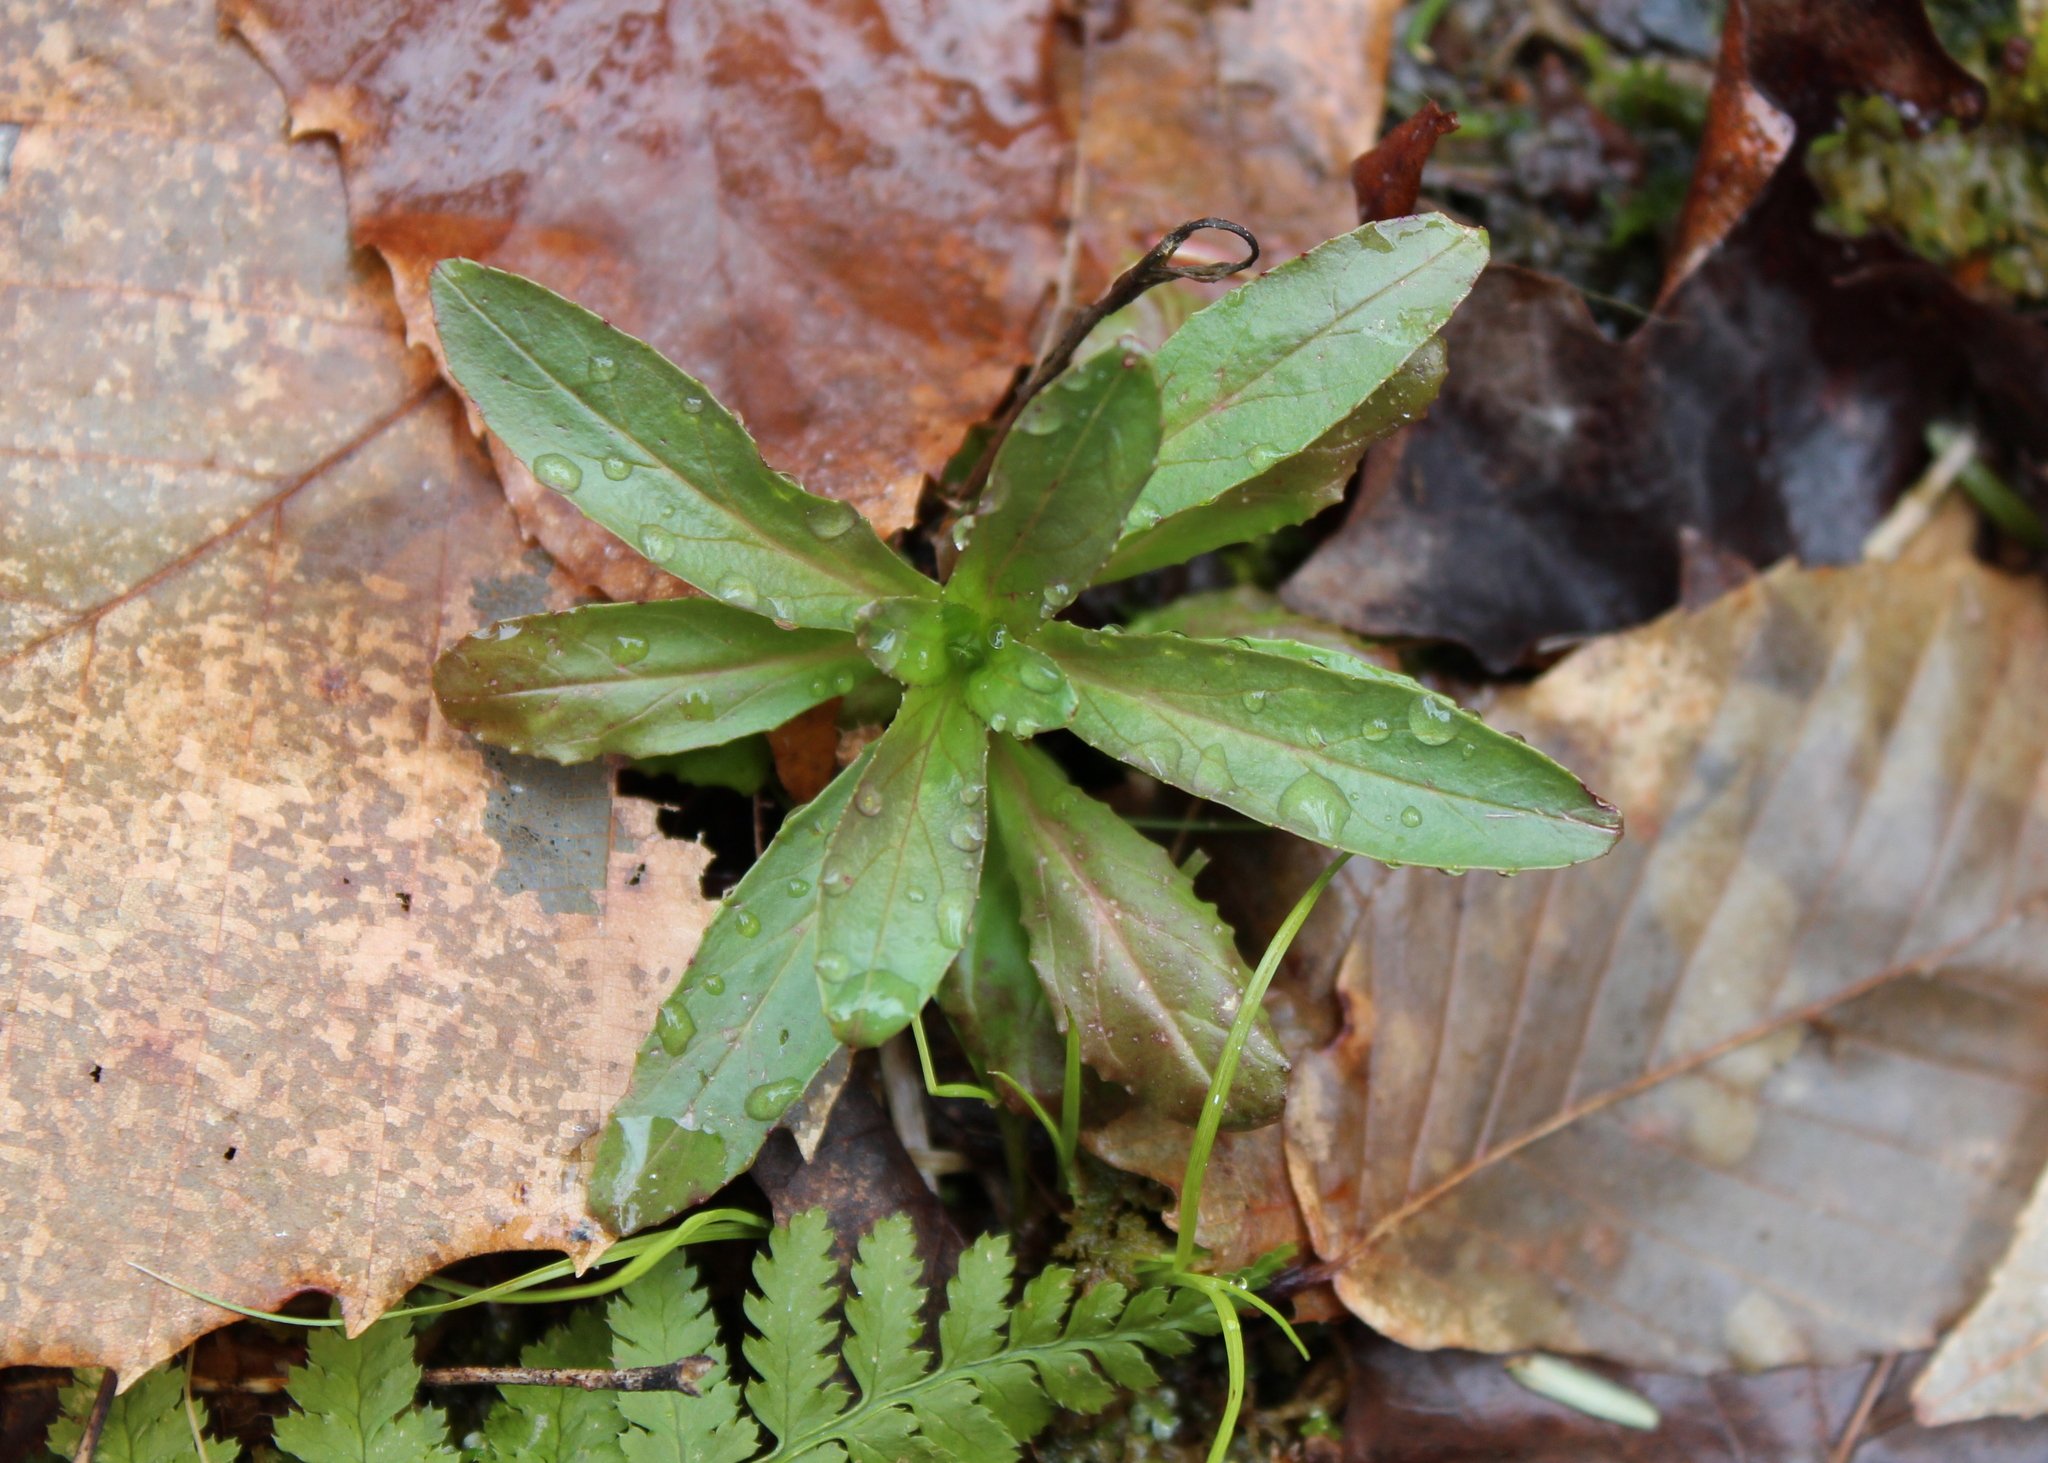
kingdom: Plantae
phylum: Tracheophyta
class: Magnoliopsida
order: Saxifragales
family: Saxifragaceae
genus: Micranthes
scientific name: Micranthes pensylvanica
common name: Marsh saxifrage
